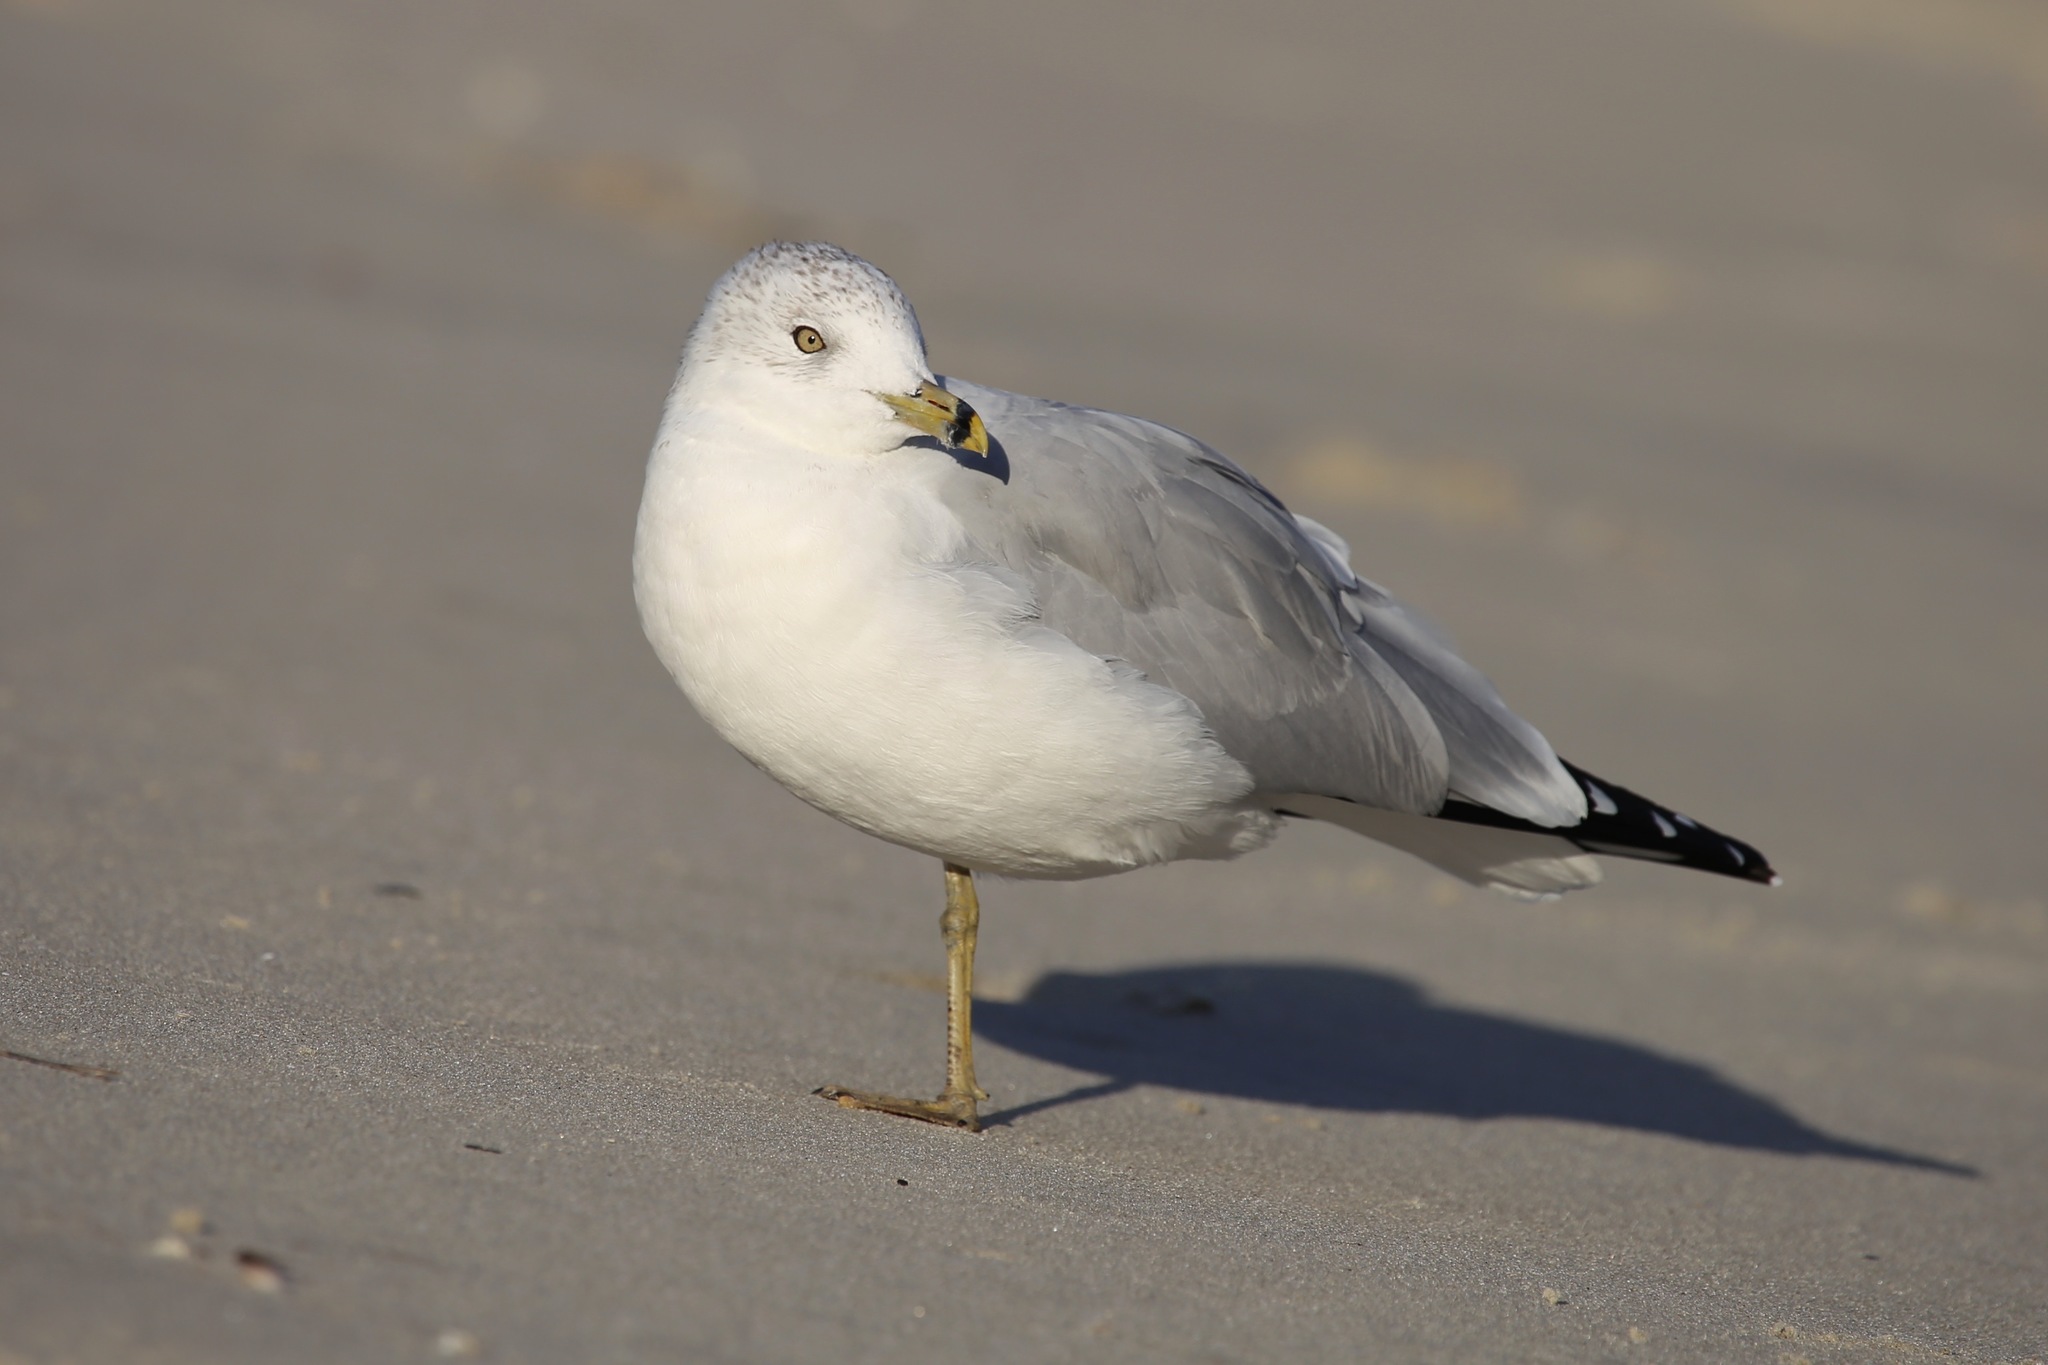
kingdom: Animalia
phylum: Chordata
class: Aves
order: Charadriiformes
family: Laridae
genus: Larus
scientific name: Larus delawarensis
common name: Ring-billed gull
